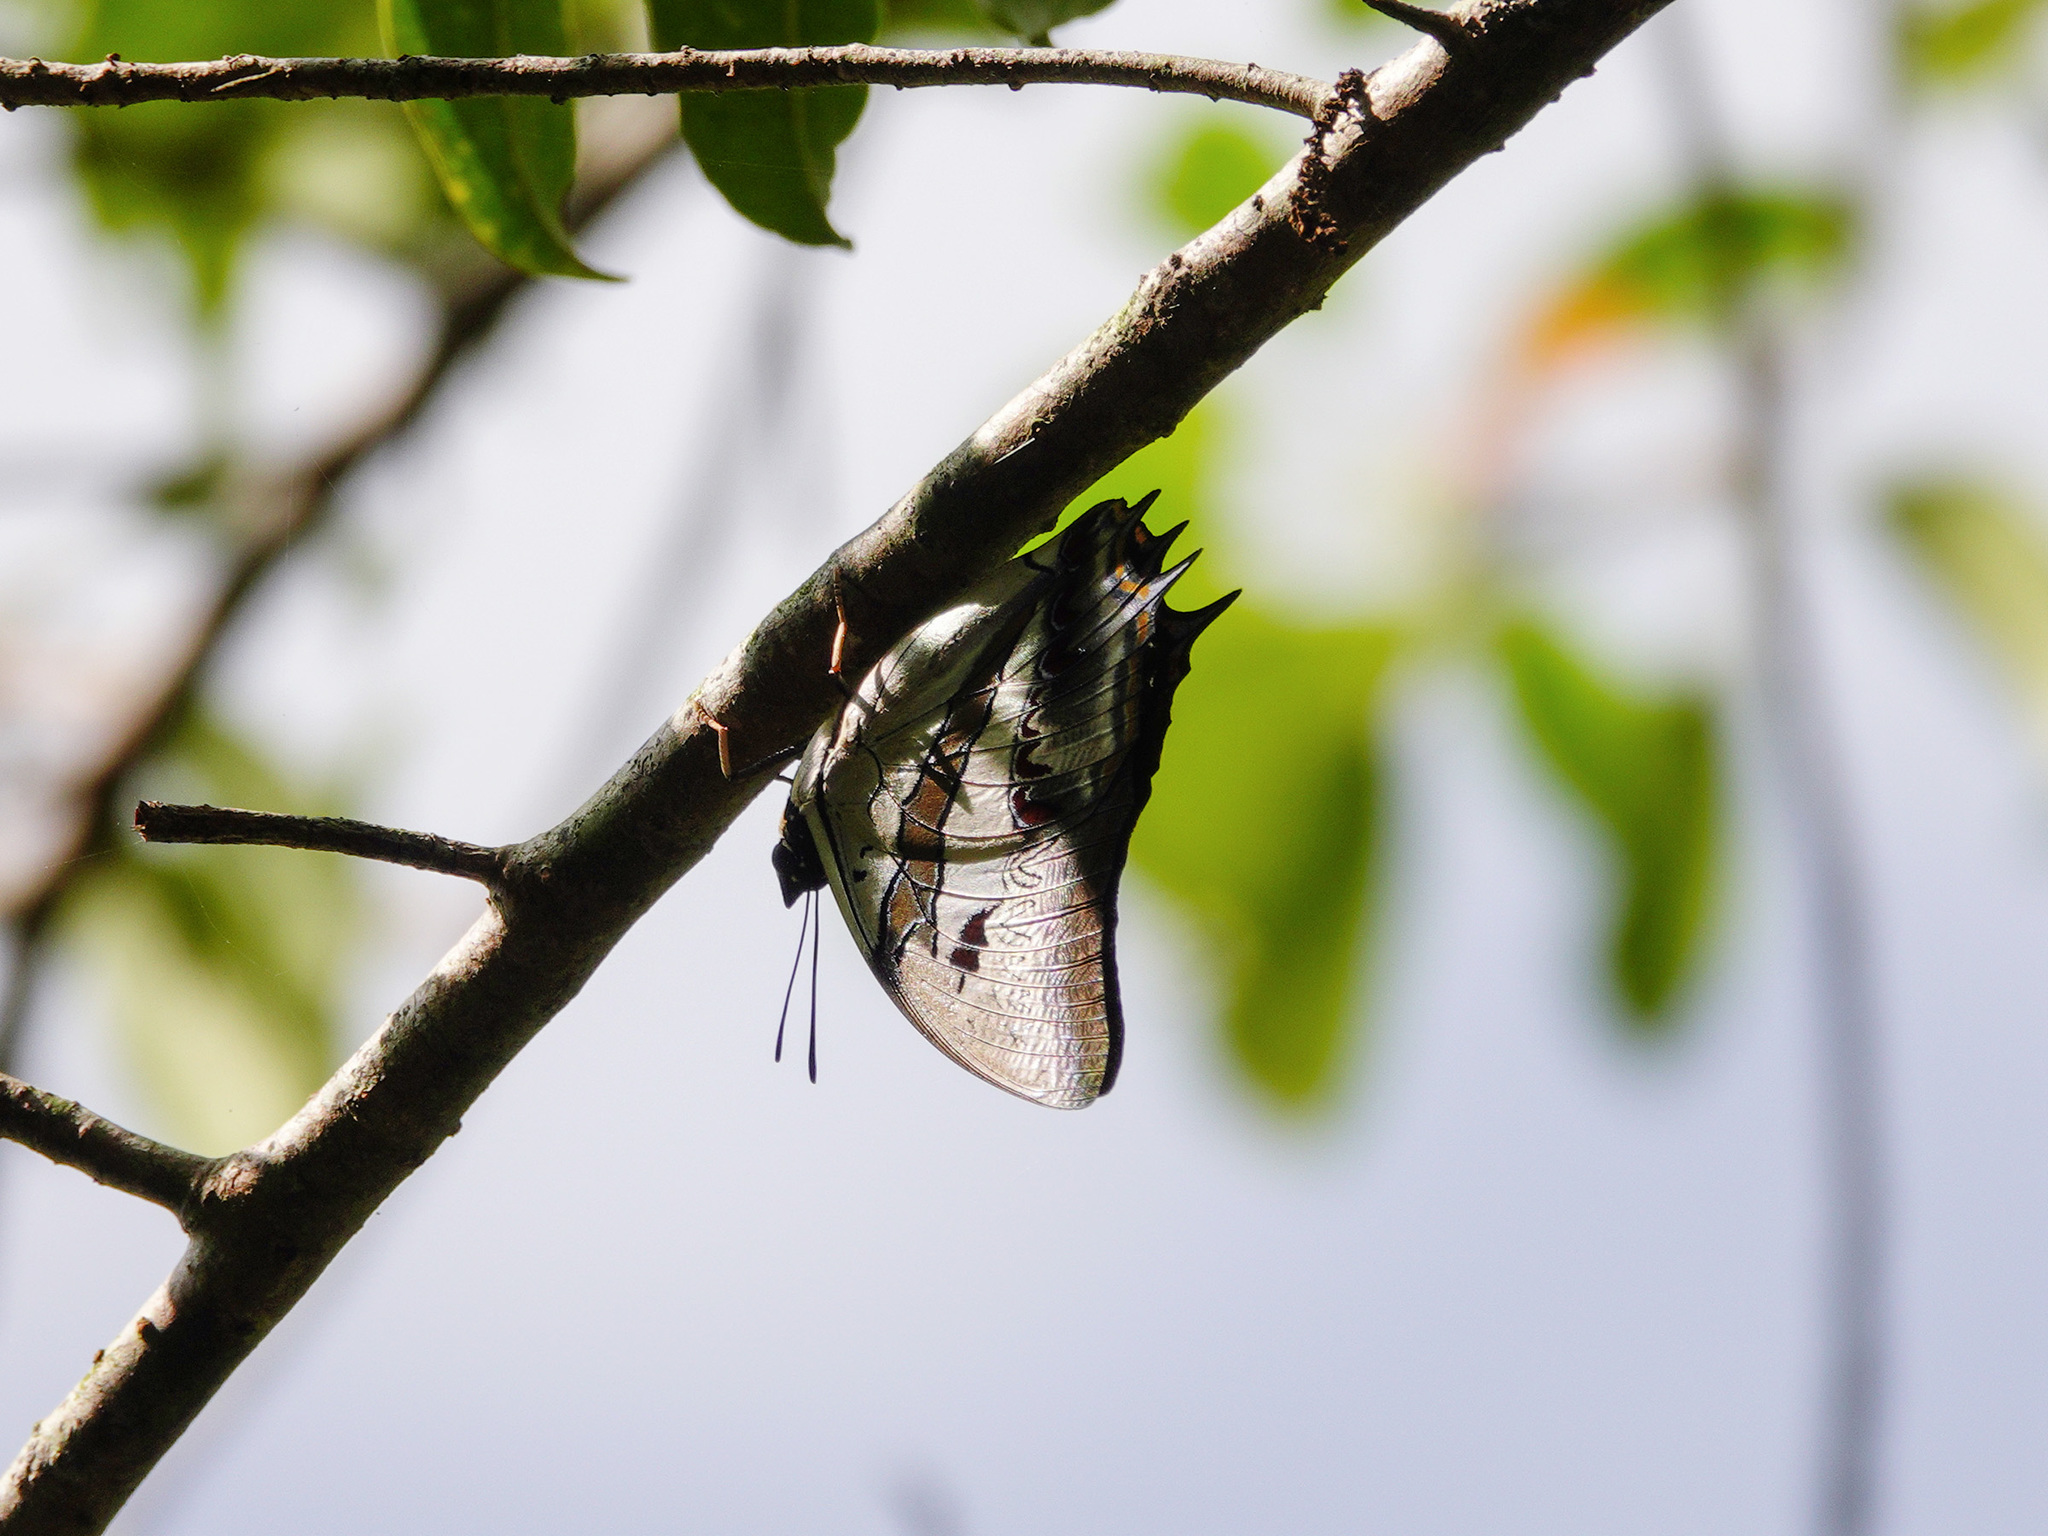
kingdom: Animalia
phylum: Arthropoda
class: Insecta
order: Lepidoptera
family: Nymphalidae
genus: Polyura
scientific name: Polyura schreiber
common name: Blue nawab
